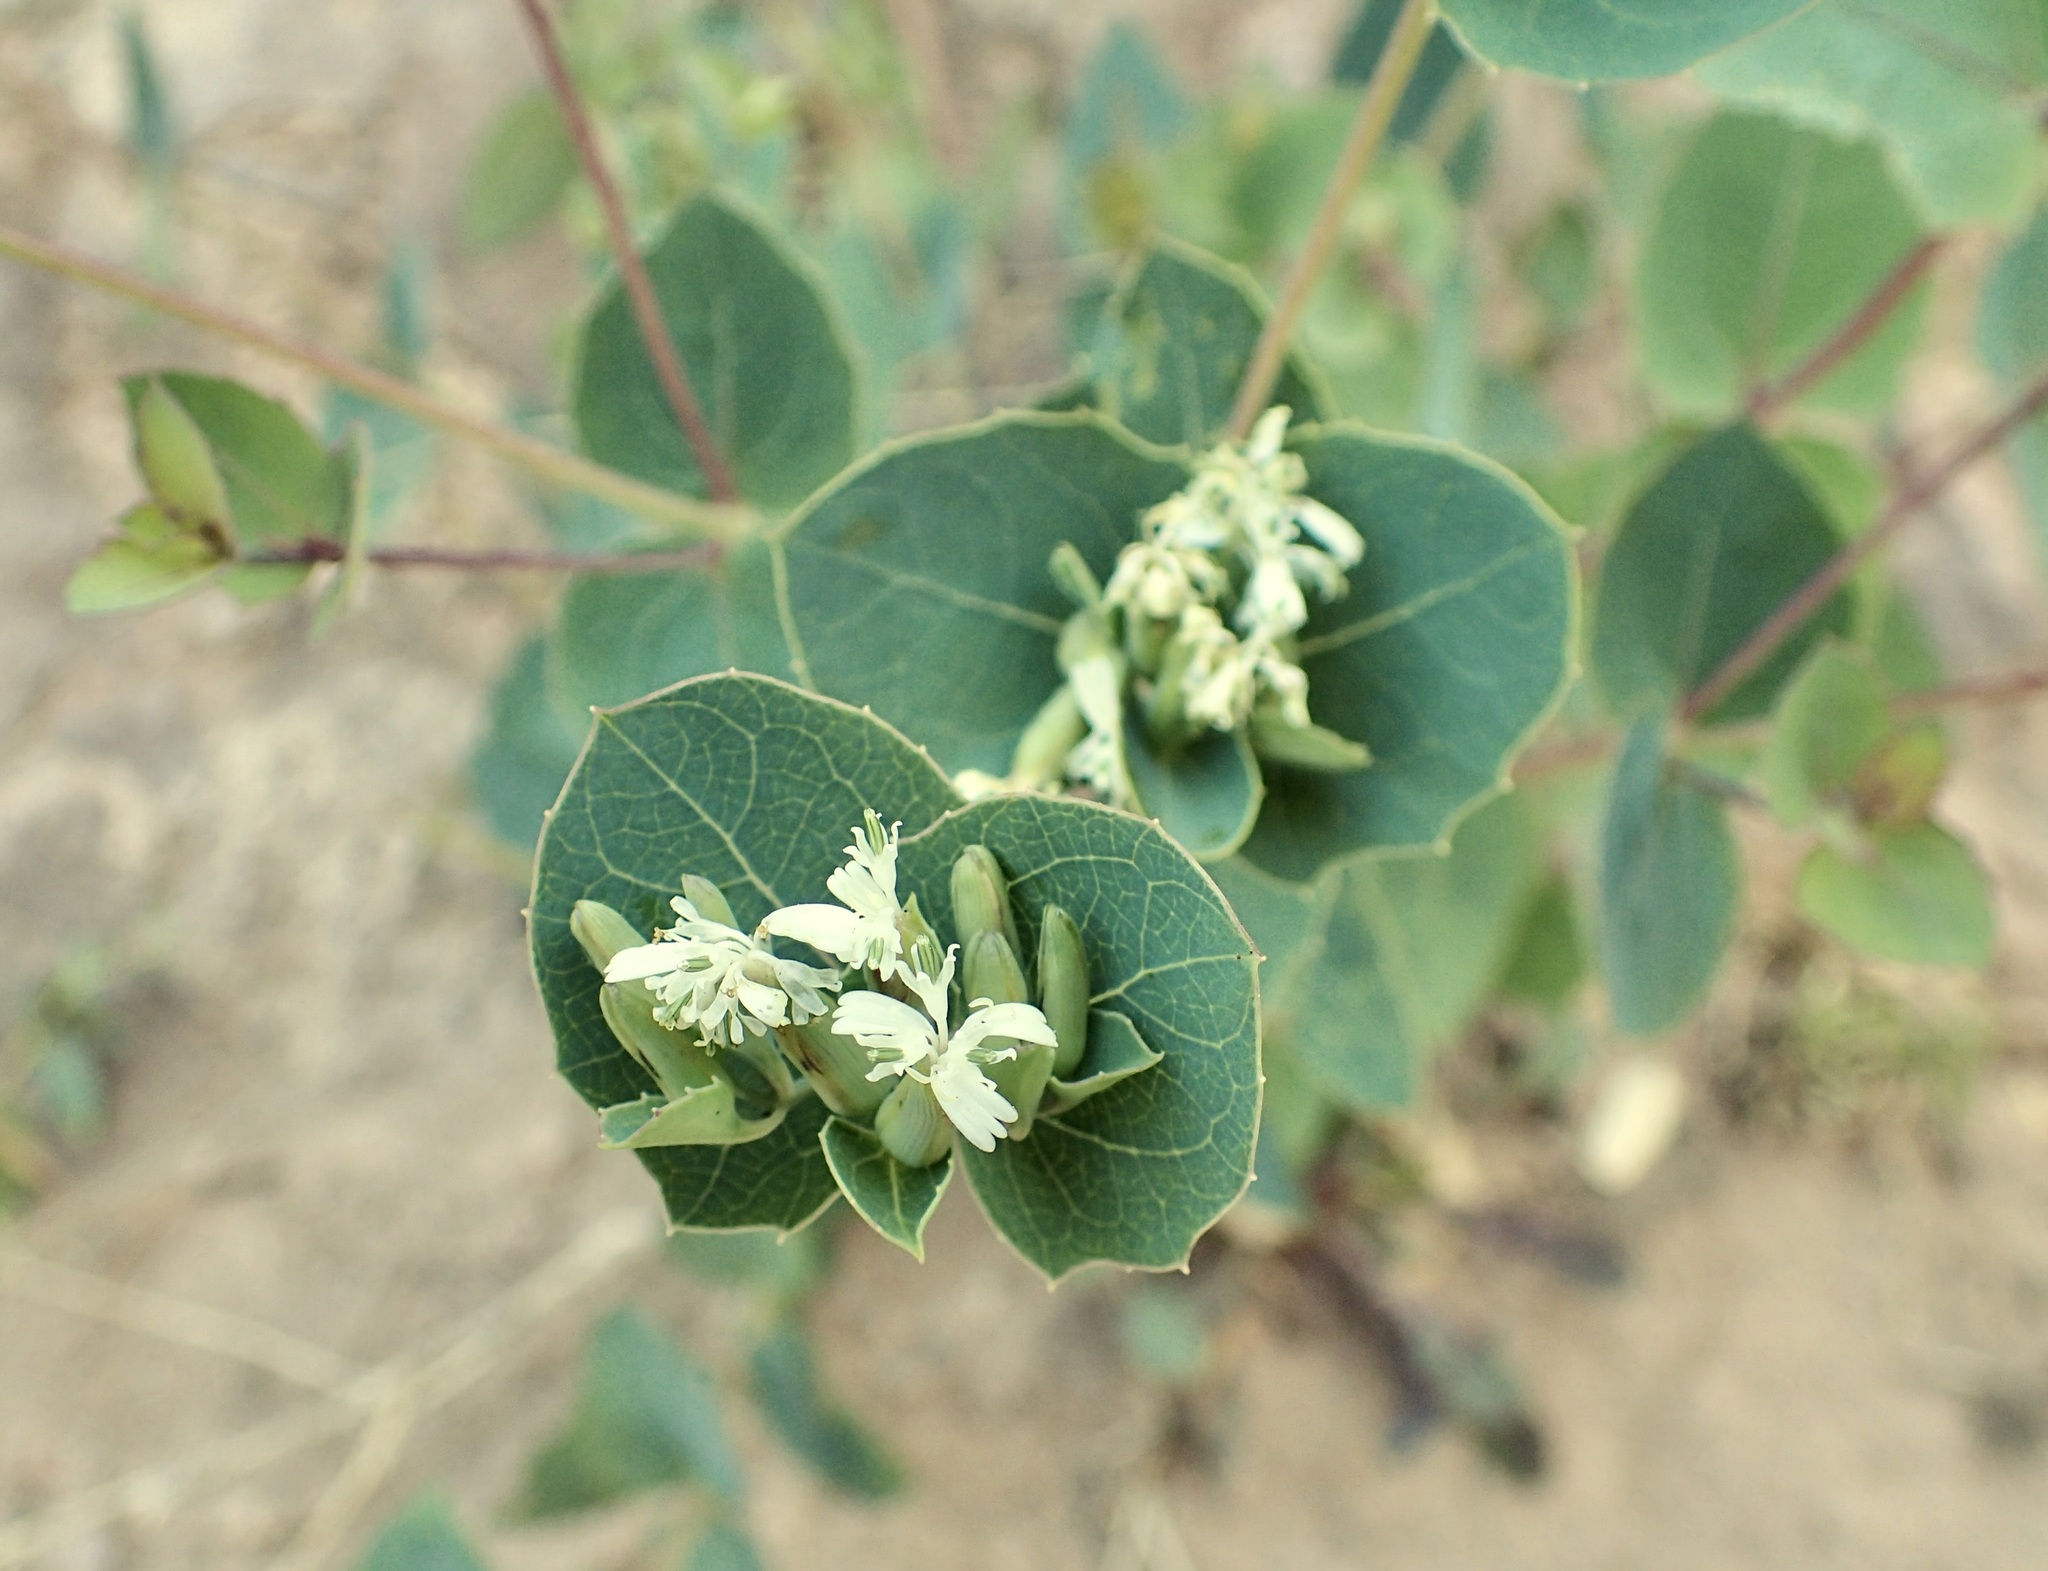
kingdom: Plantae
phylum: Tracheophyta
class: Magnoliopsida
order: Asterales
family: Asteraceae
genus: Guardiola
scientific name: Guardiola platyphylla
